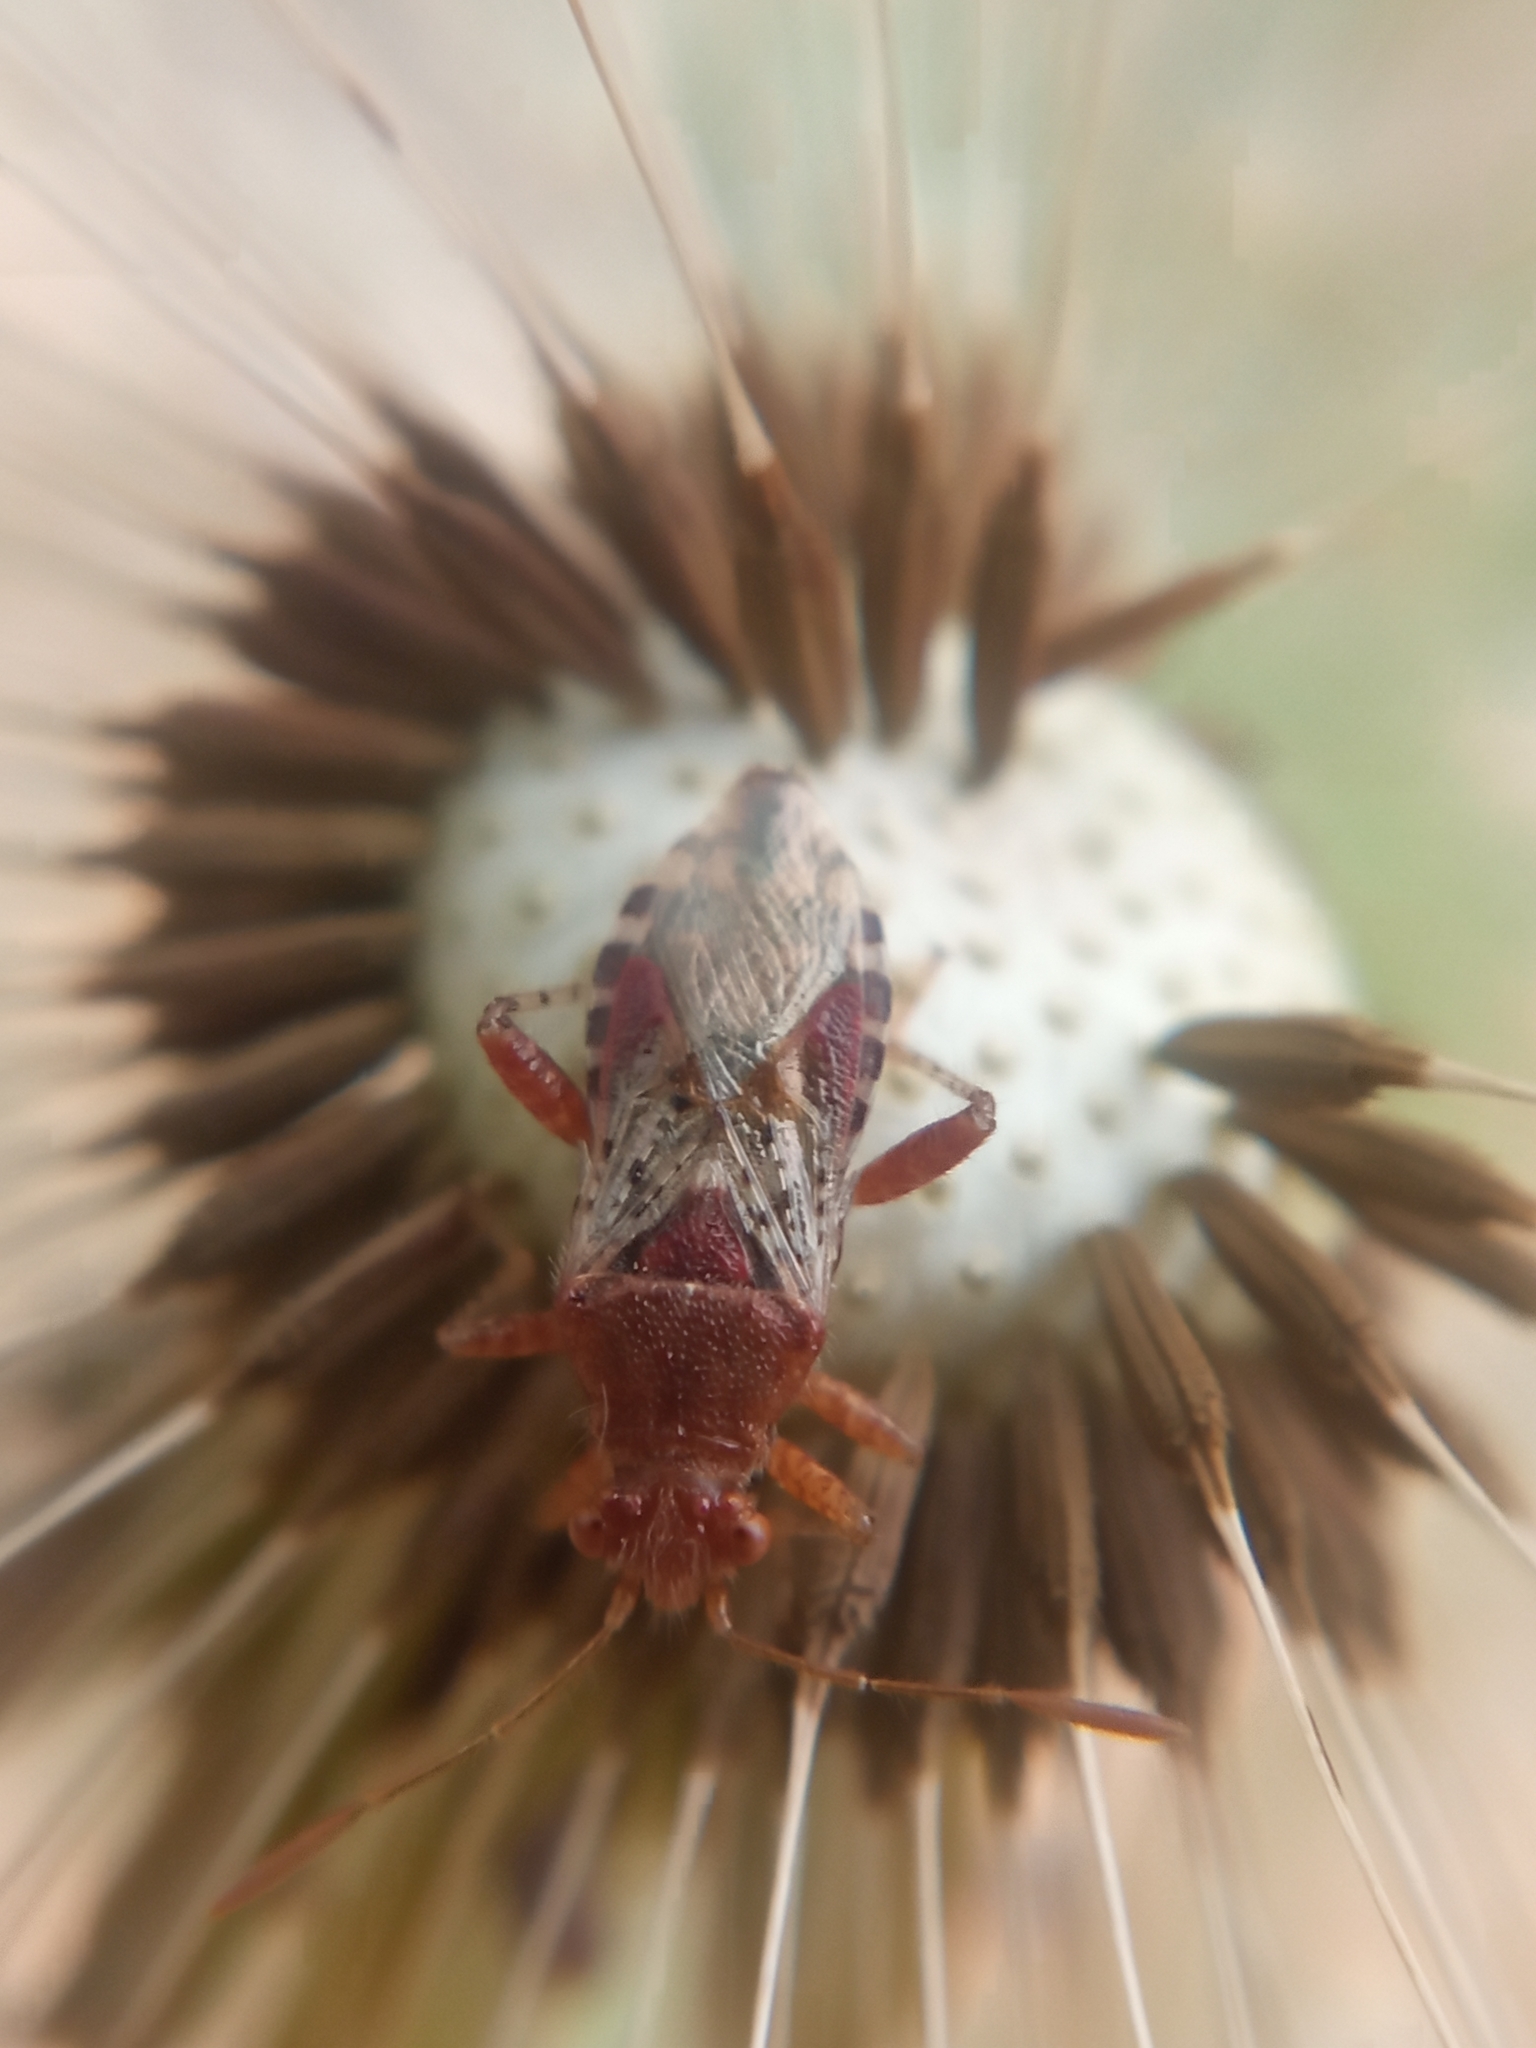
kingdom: Animalia
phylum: Arthropoda
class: Insecta
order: Hemiptera
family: Rhopalidae
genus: Rhopalus
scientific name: Rhopalus subrufus
